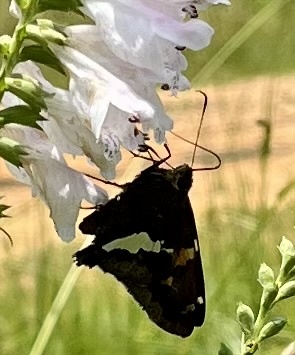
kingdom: Animalia
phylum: Arthropoda
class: Insecta
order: Lepidoptera
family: Hesperiidae
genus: Epargyreus
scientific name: Epargyreus clarus
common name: Silver-spotted skipper
